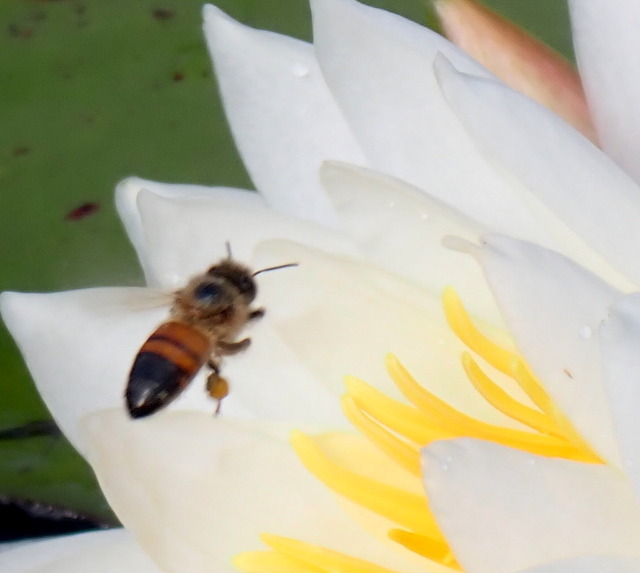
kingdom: Animalia
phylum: Arthropoda
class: Insecta
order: Hymenoptera
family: Apidae
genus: Apis
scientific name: Apis mellifera
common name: Honey bee
